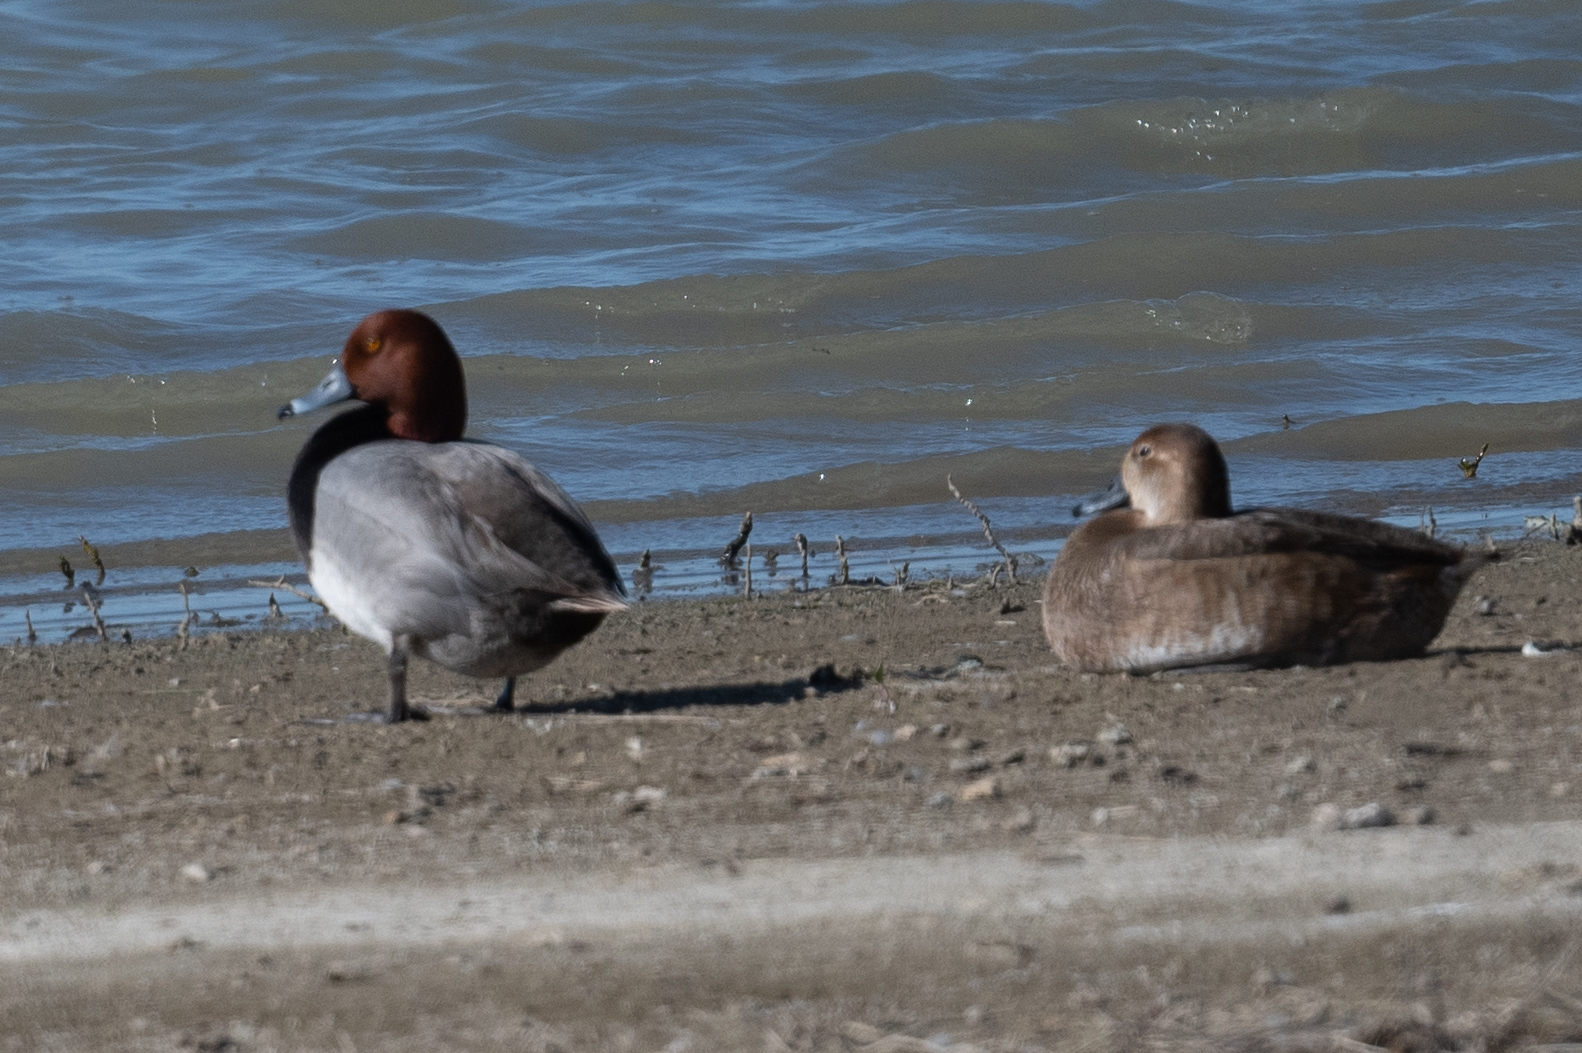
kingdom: Animalia
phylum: Chordata
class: Aves
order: Anseriformes
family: Anatidae
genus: Aythya
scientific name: Aythya americana
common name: Redhead
